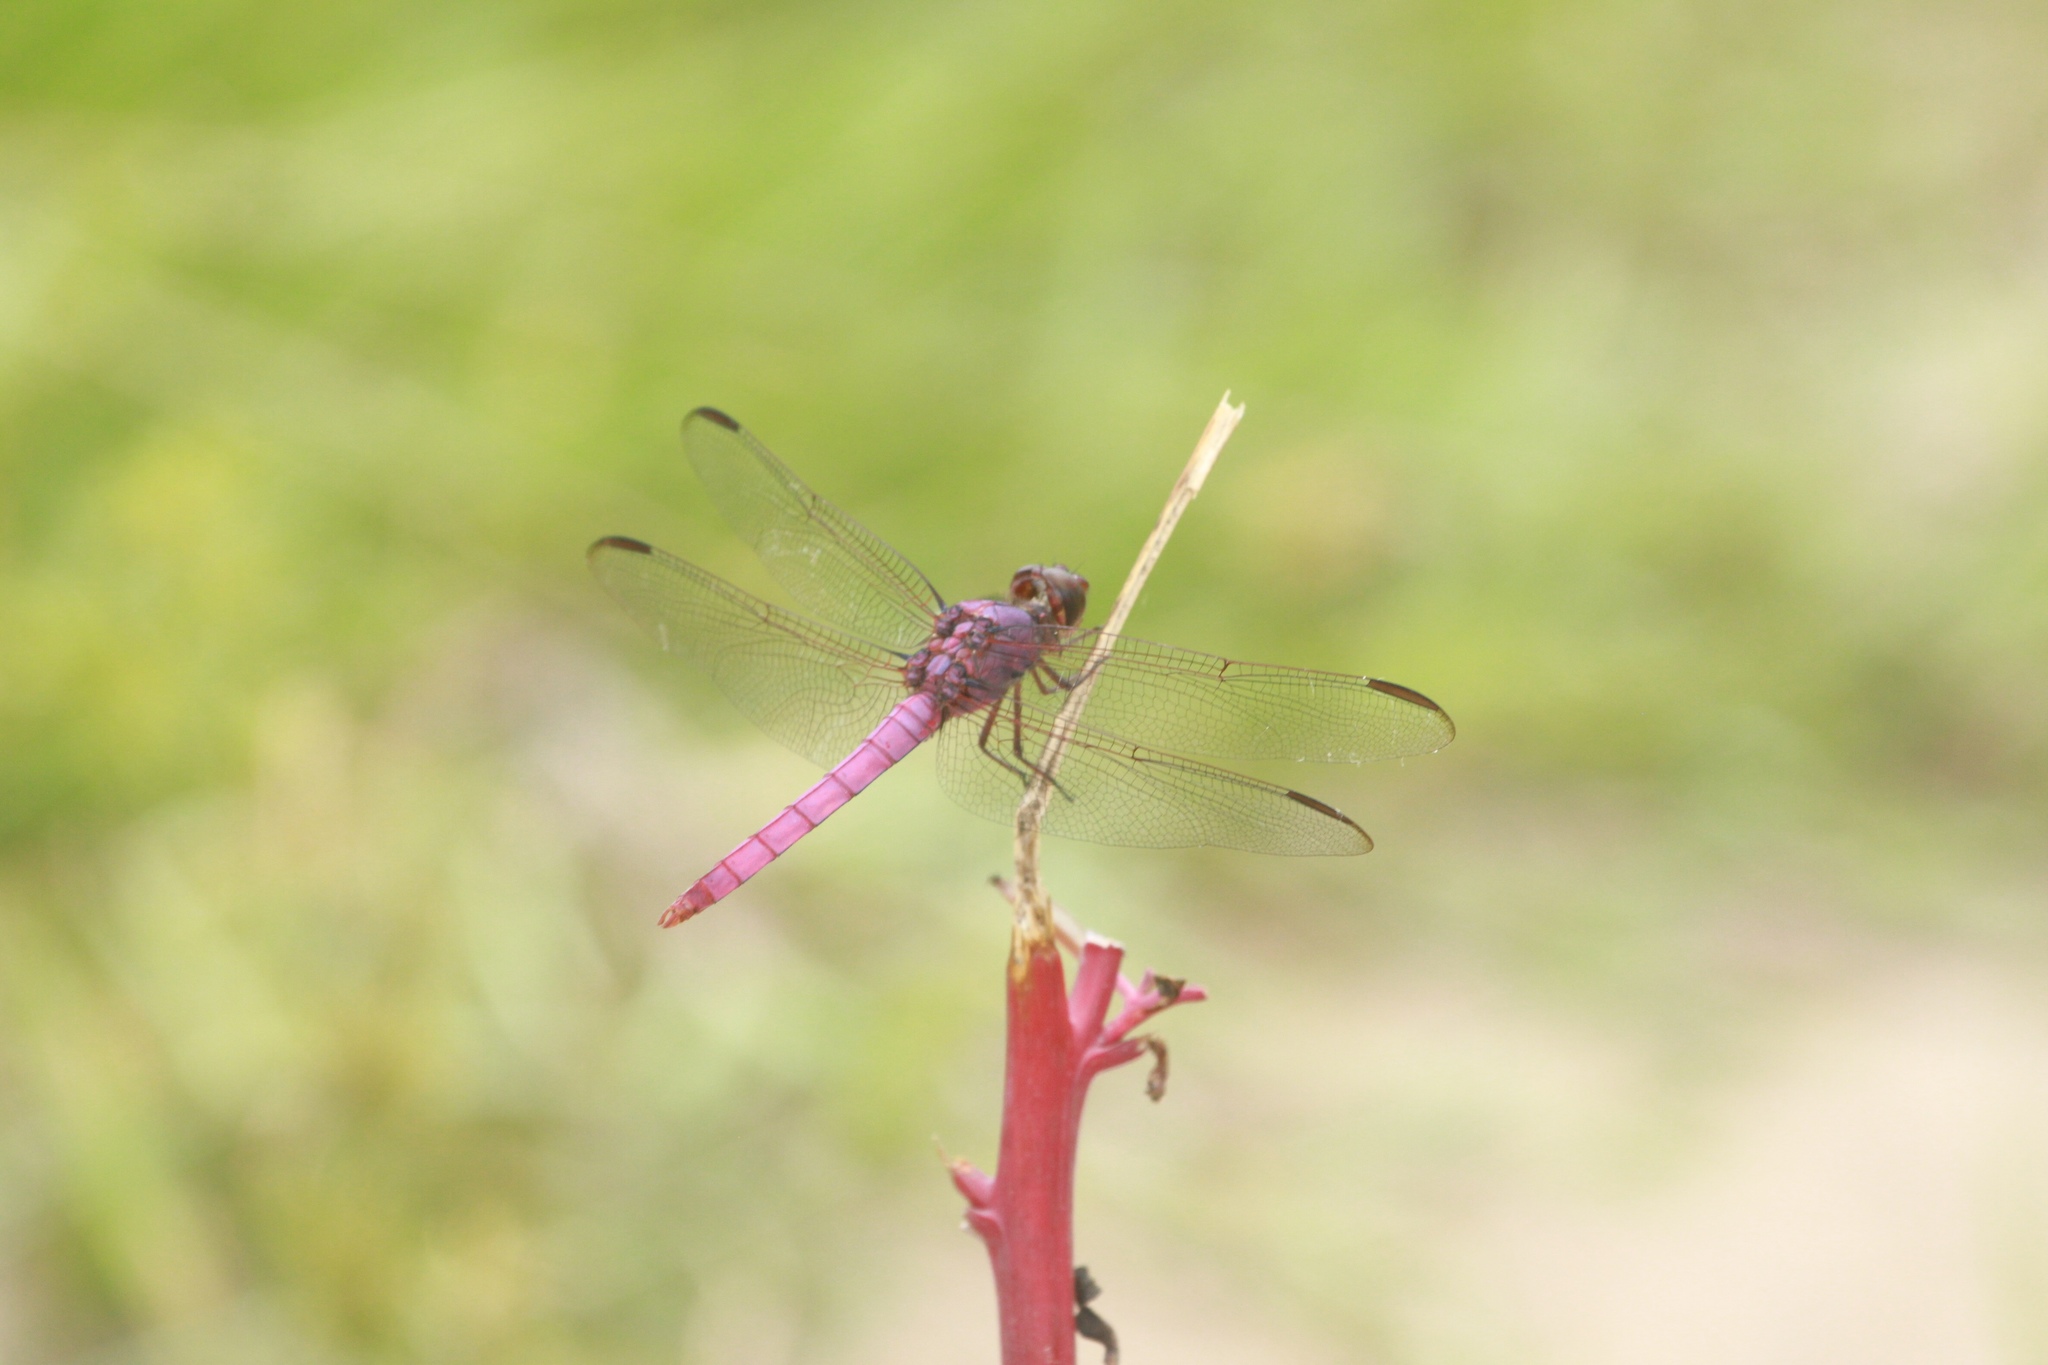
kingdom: Animalia
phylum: Arthropoda
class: Insecta
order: Odonata
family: Libellulidae
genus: Orthemis
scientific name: Orthemis ferruginea
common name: Roseate skimmer
